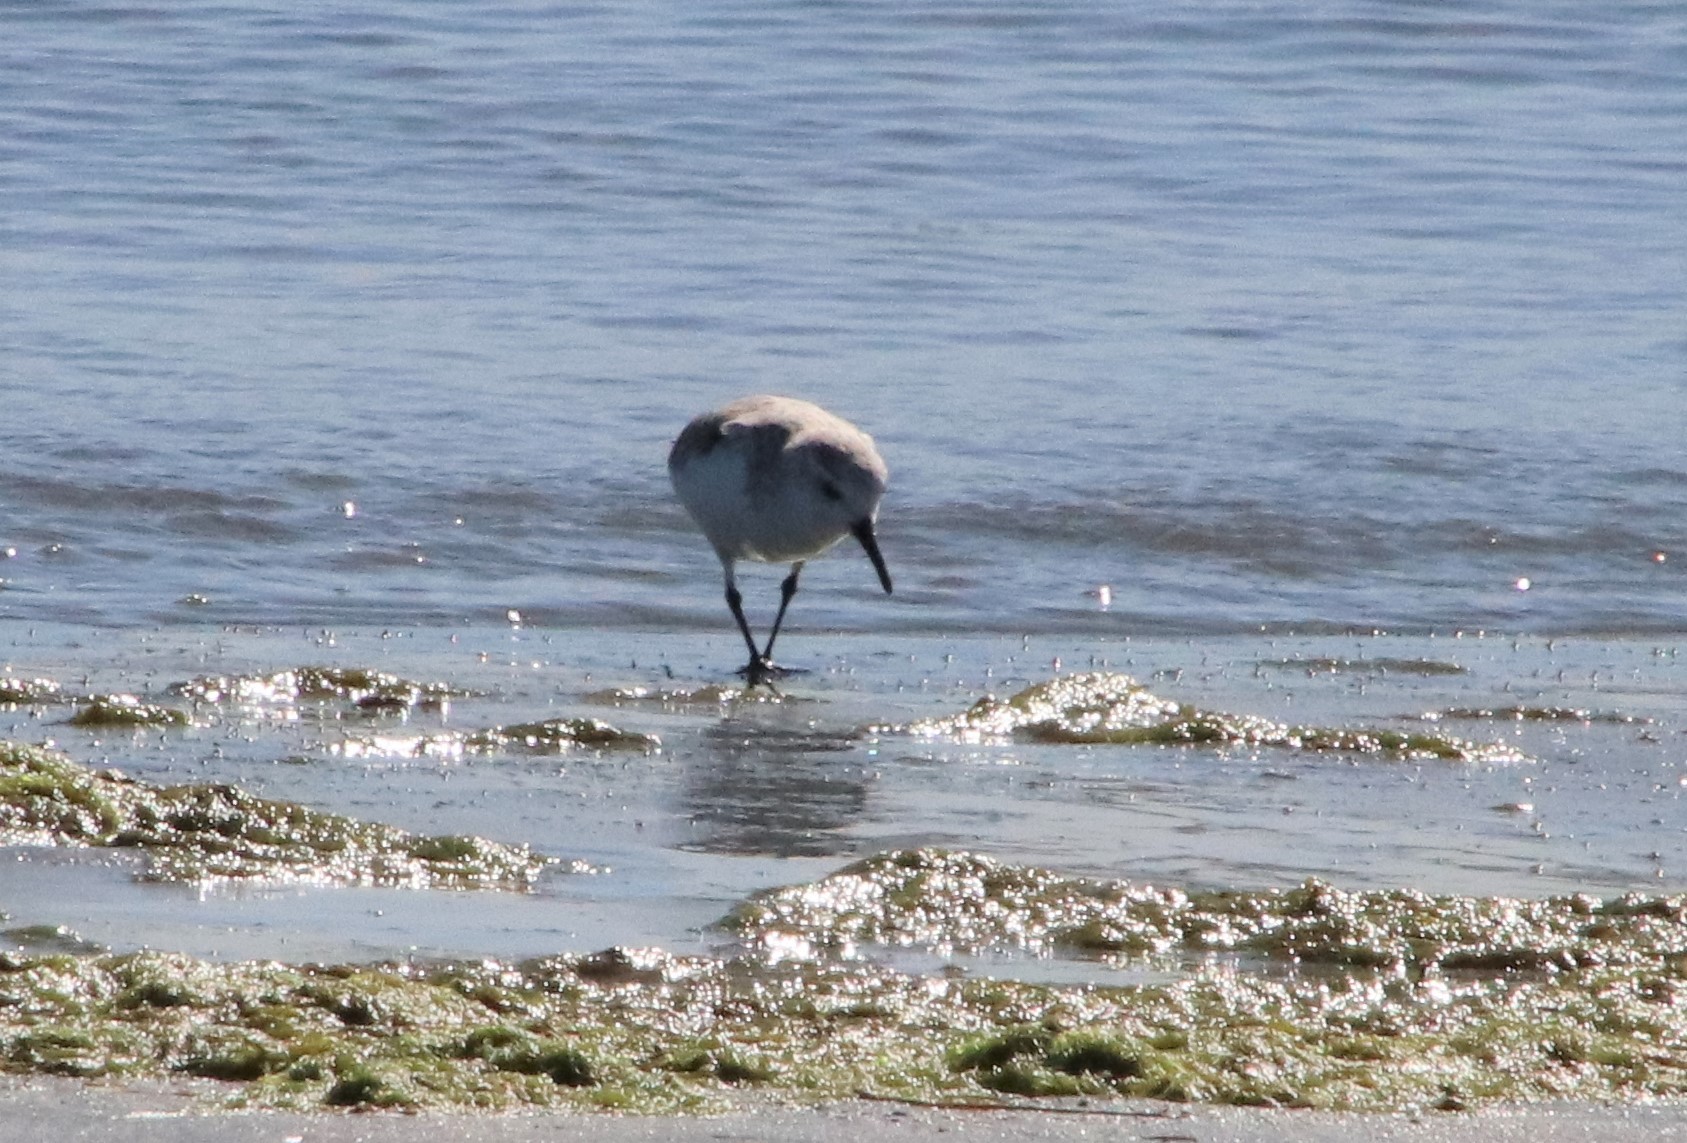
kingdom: Animalia
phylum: Chordata
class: Aves
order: Charadriiformes
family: Scolopacidae
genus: Calidris
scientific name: Calidris alba
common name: Sanderling
